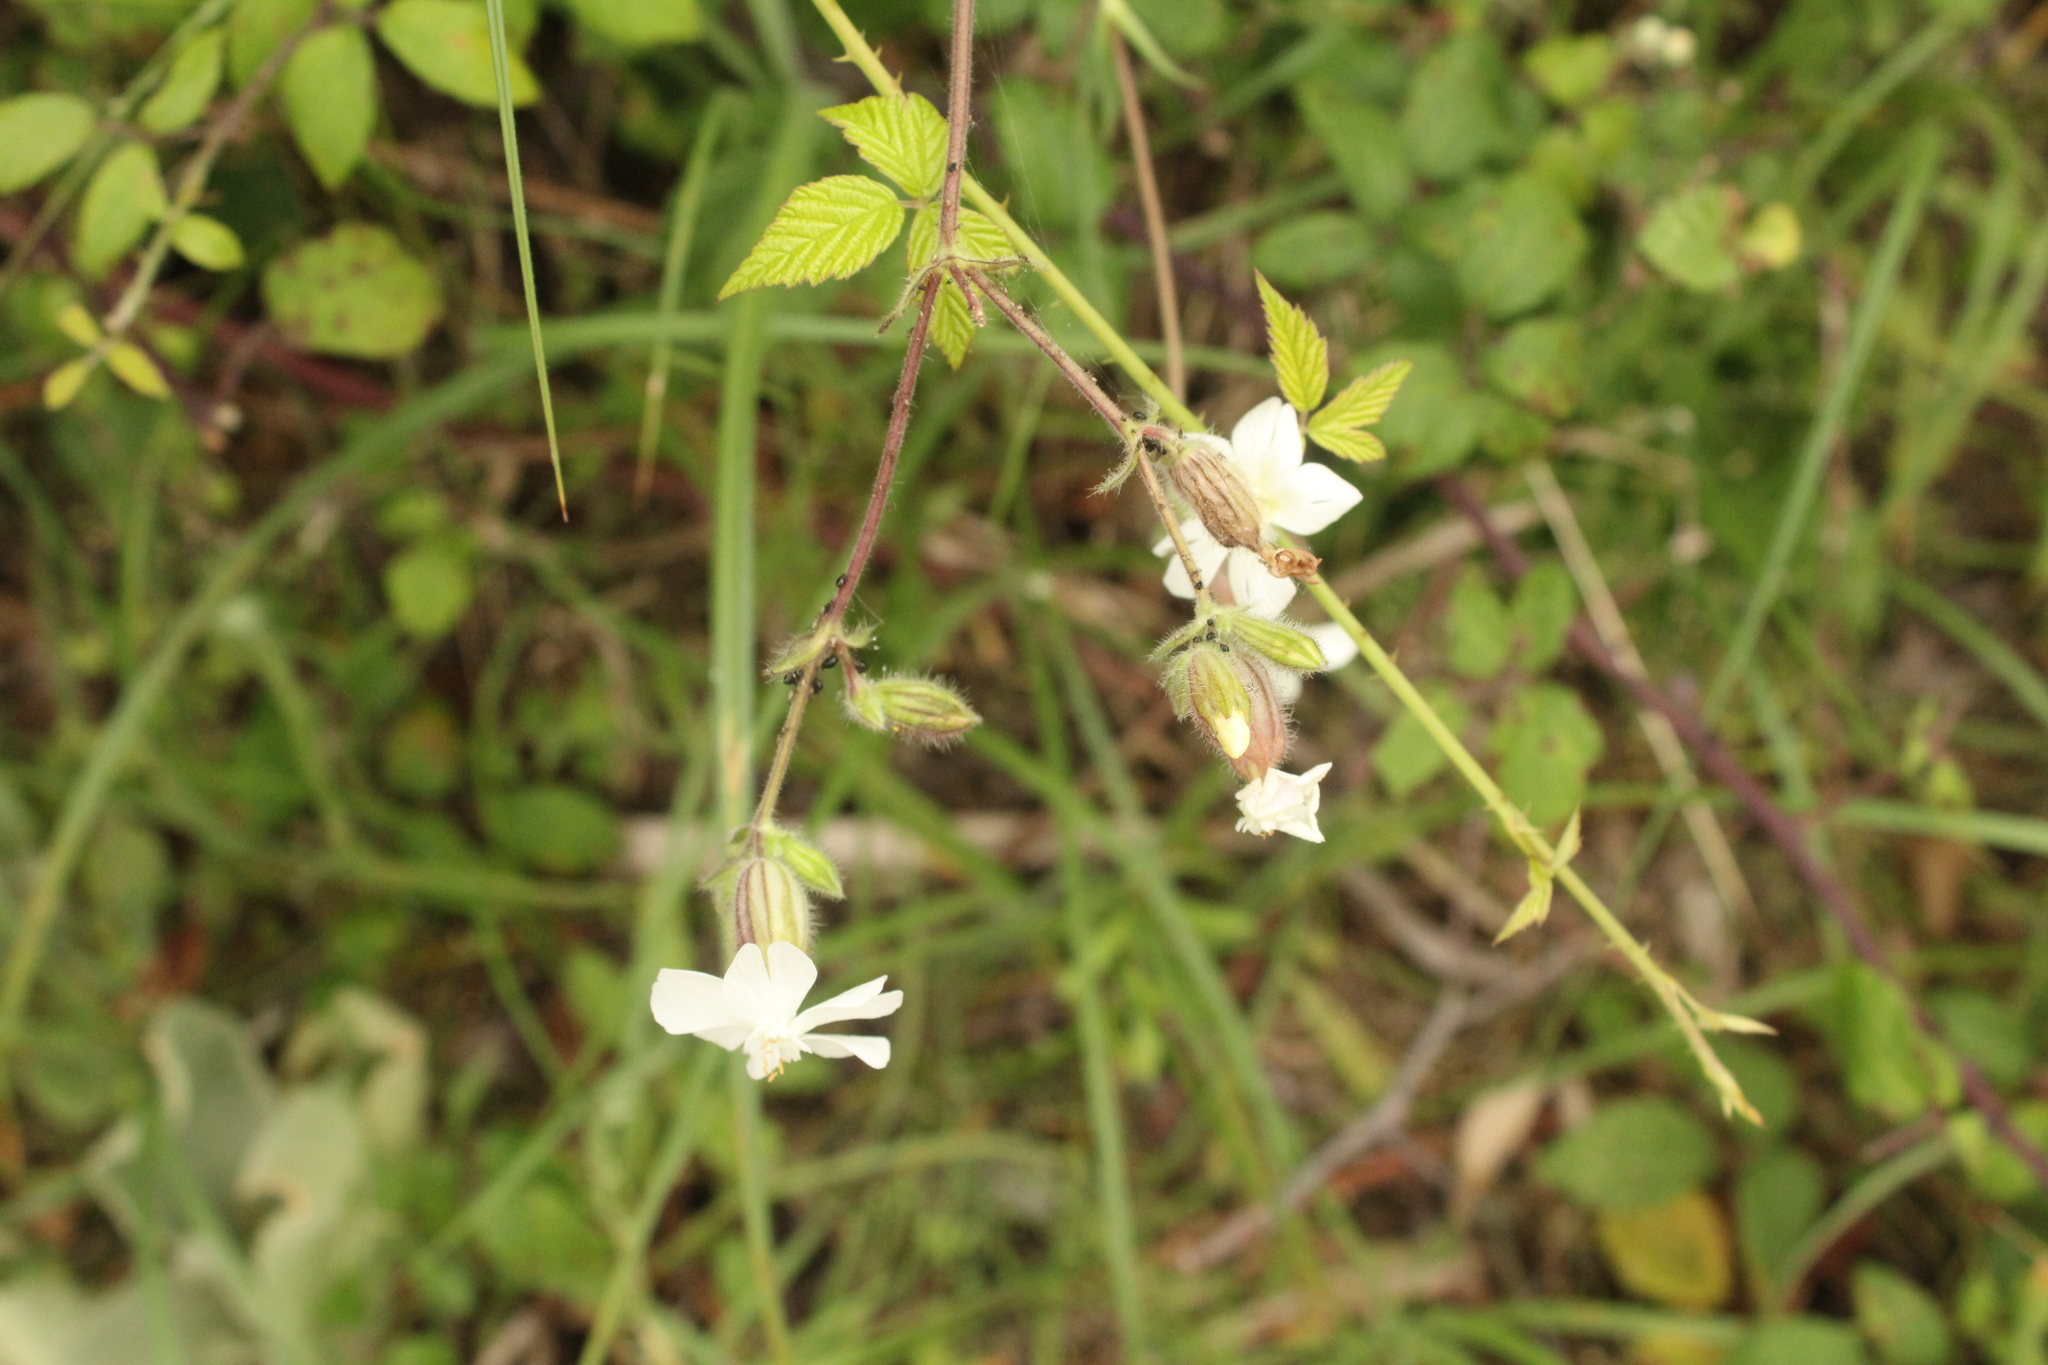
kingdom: Plantae
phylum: Tracheophyta
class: Magnoliopsida
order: Caryophyllales
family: Caryophyllaceae
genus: Silene
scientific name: Silene latifolia
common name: White campion
